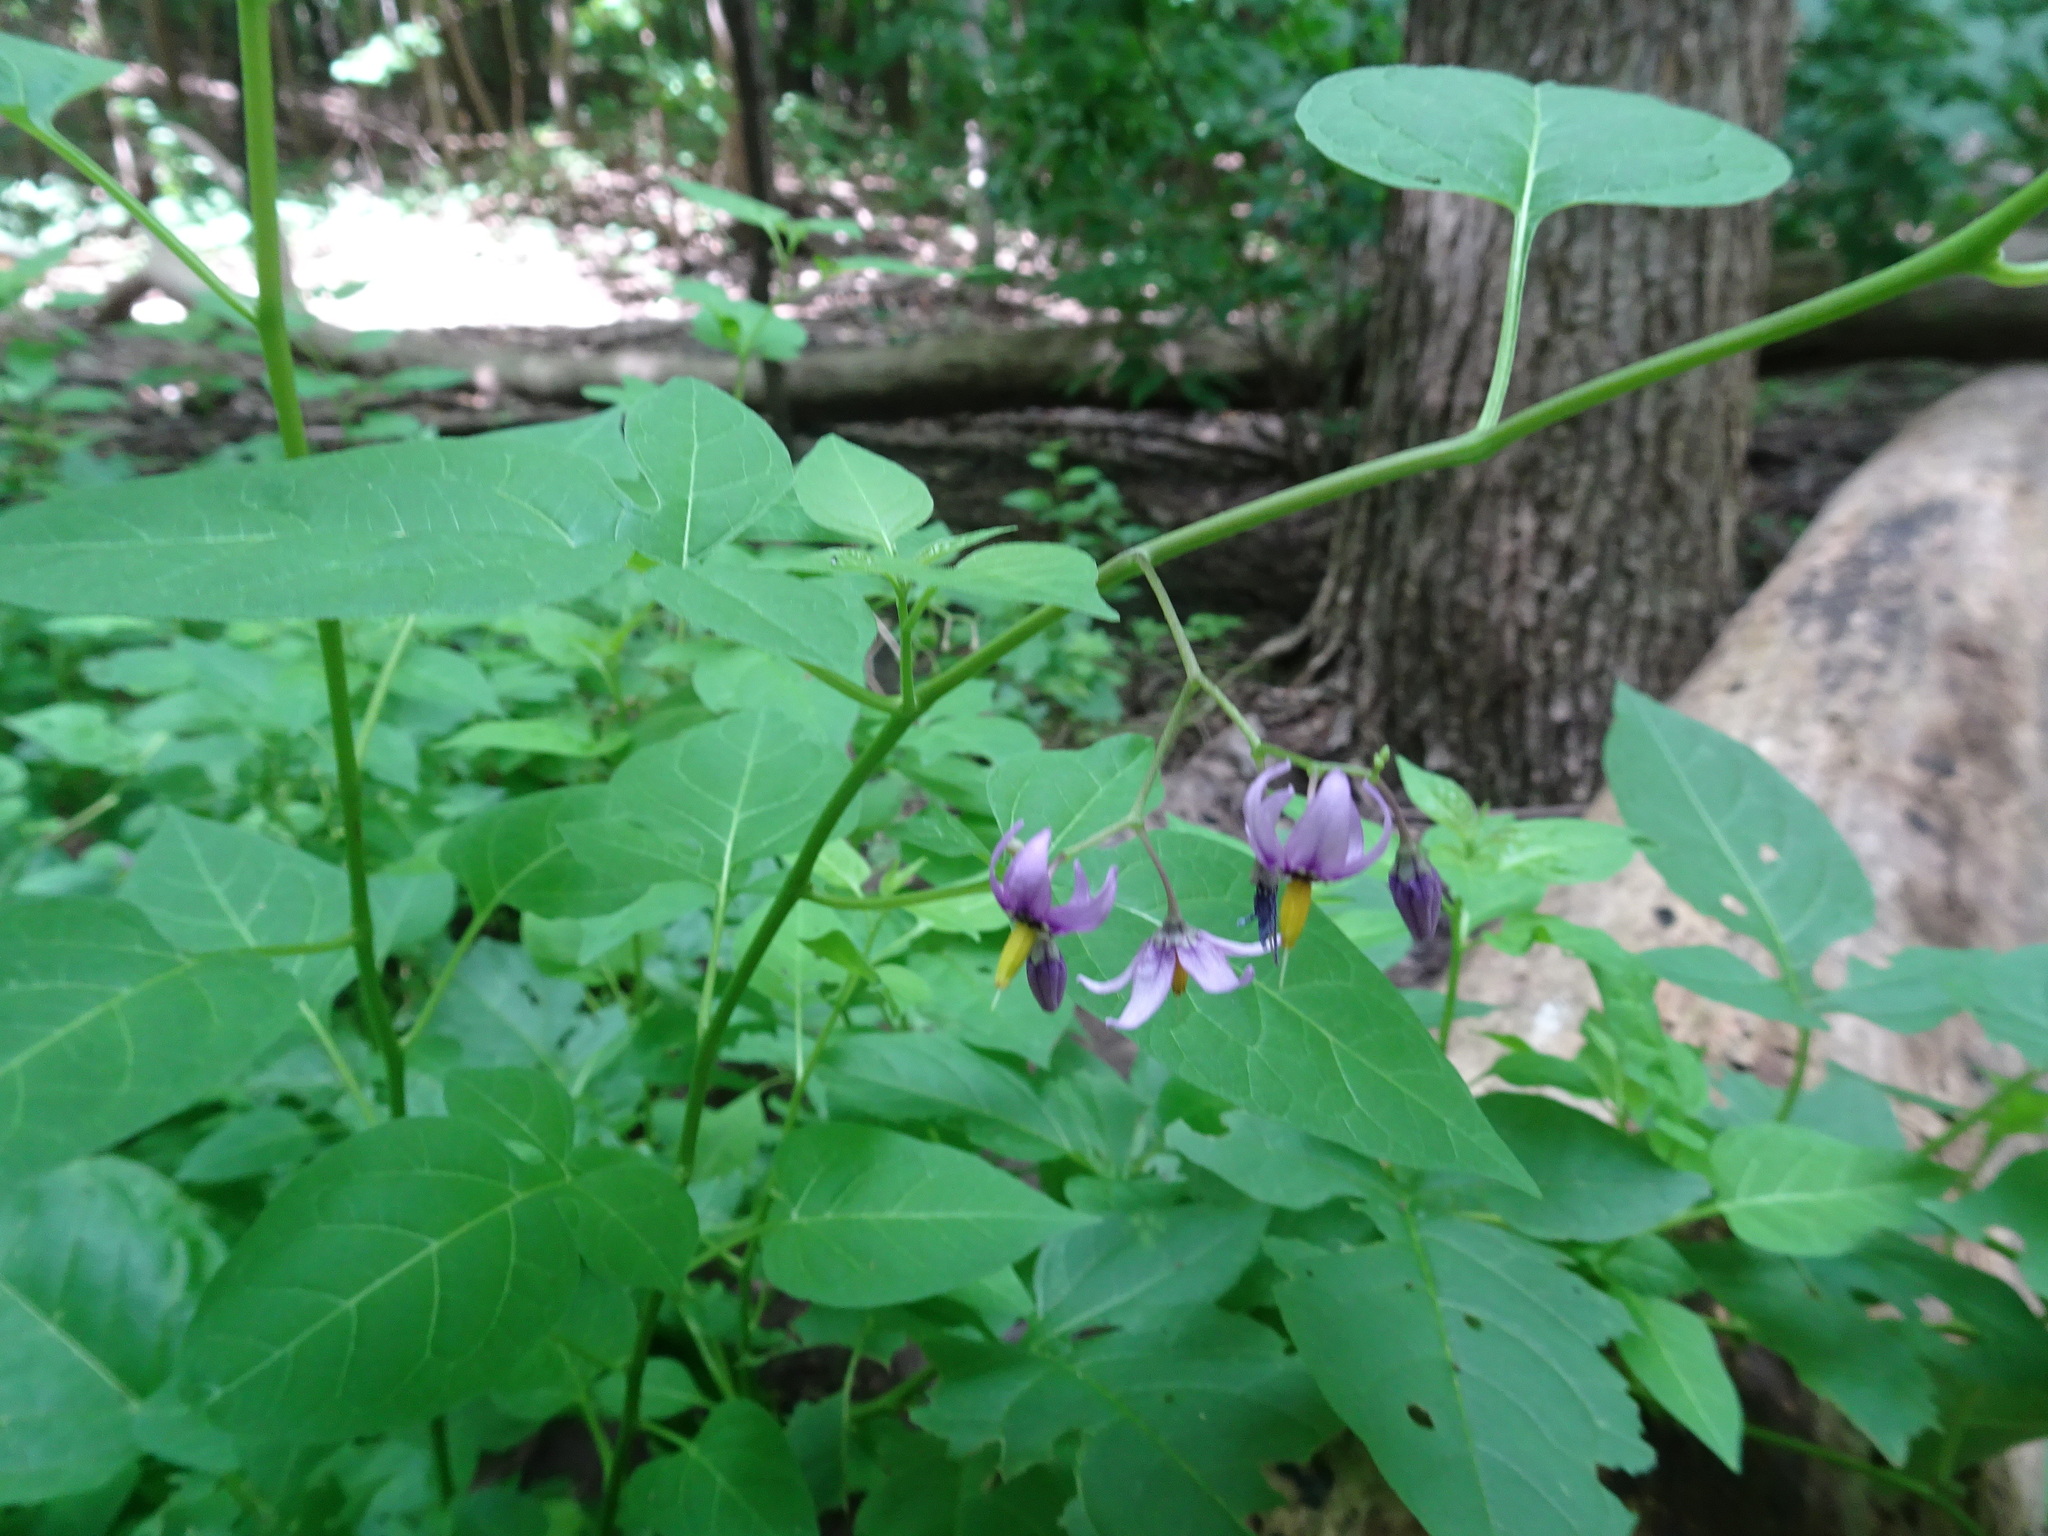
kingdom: Plantae
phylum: Tracheophyta
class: Magnoliopsida
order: Solanales
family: Solanaceae
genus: Solanum
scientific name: Solanum dulcamara
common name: Climbing nightshade
